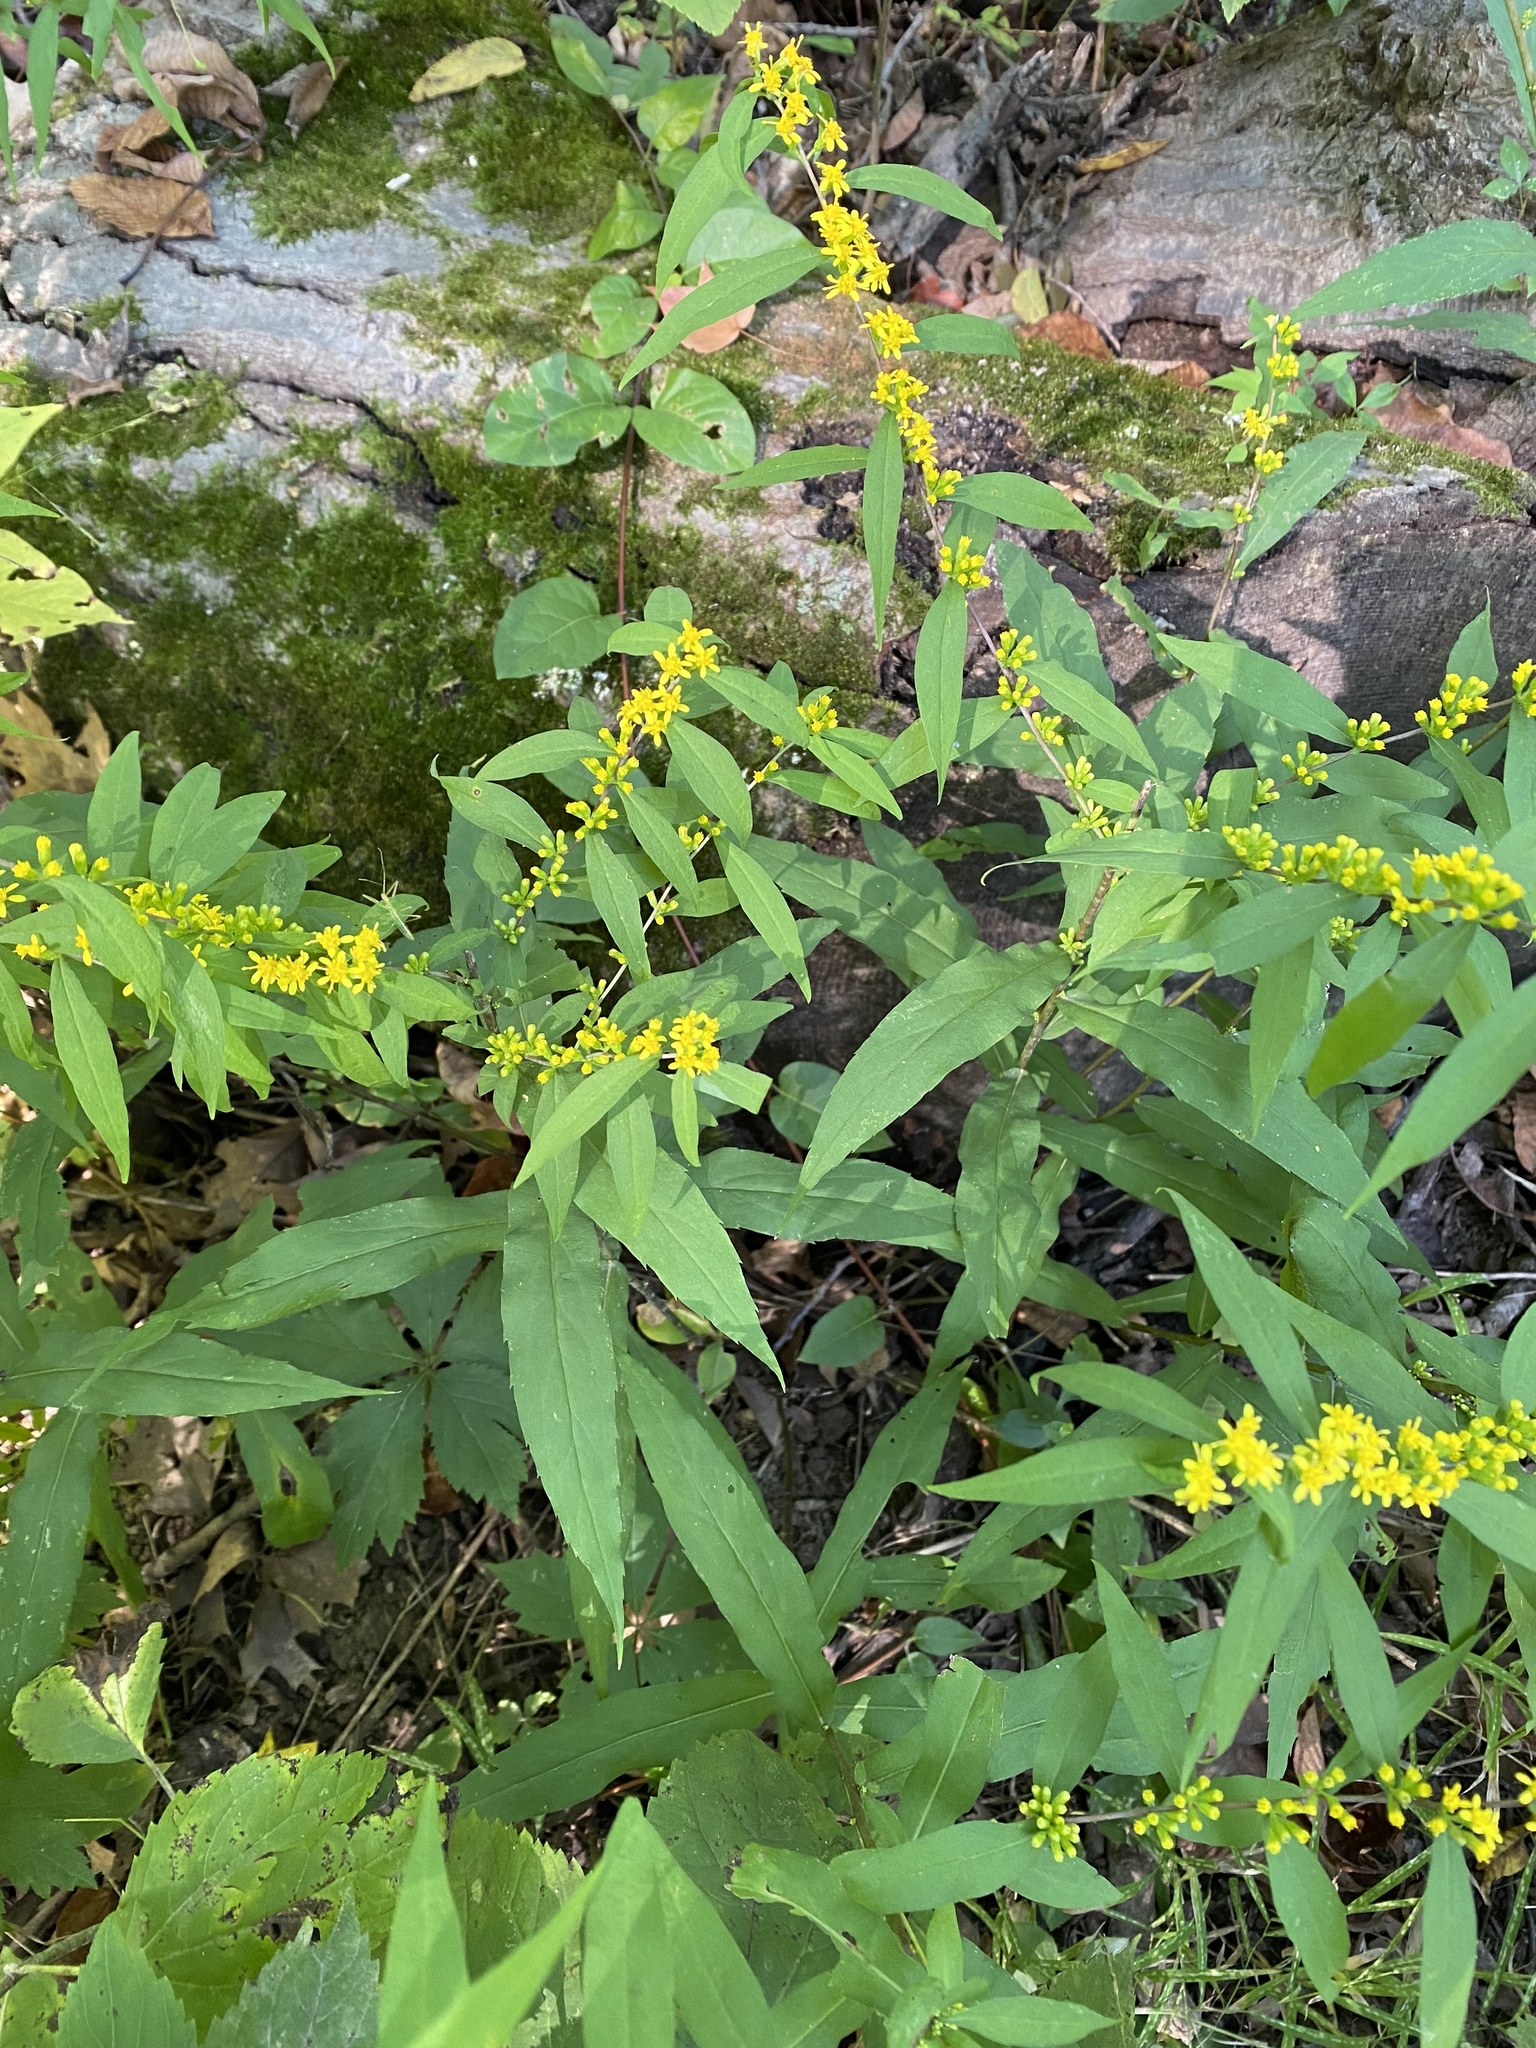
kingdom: Plantae
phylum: Tracheophyta
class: Magnoliopsida
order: Asterales
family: Asteraceae
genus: Solidago
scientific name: Solidago caesia
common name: Woodland goldenrod
